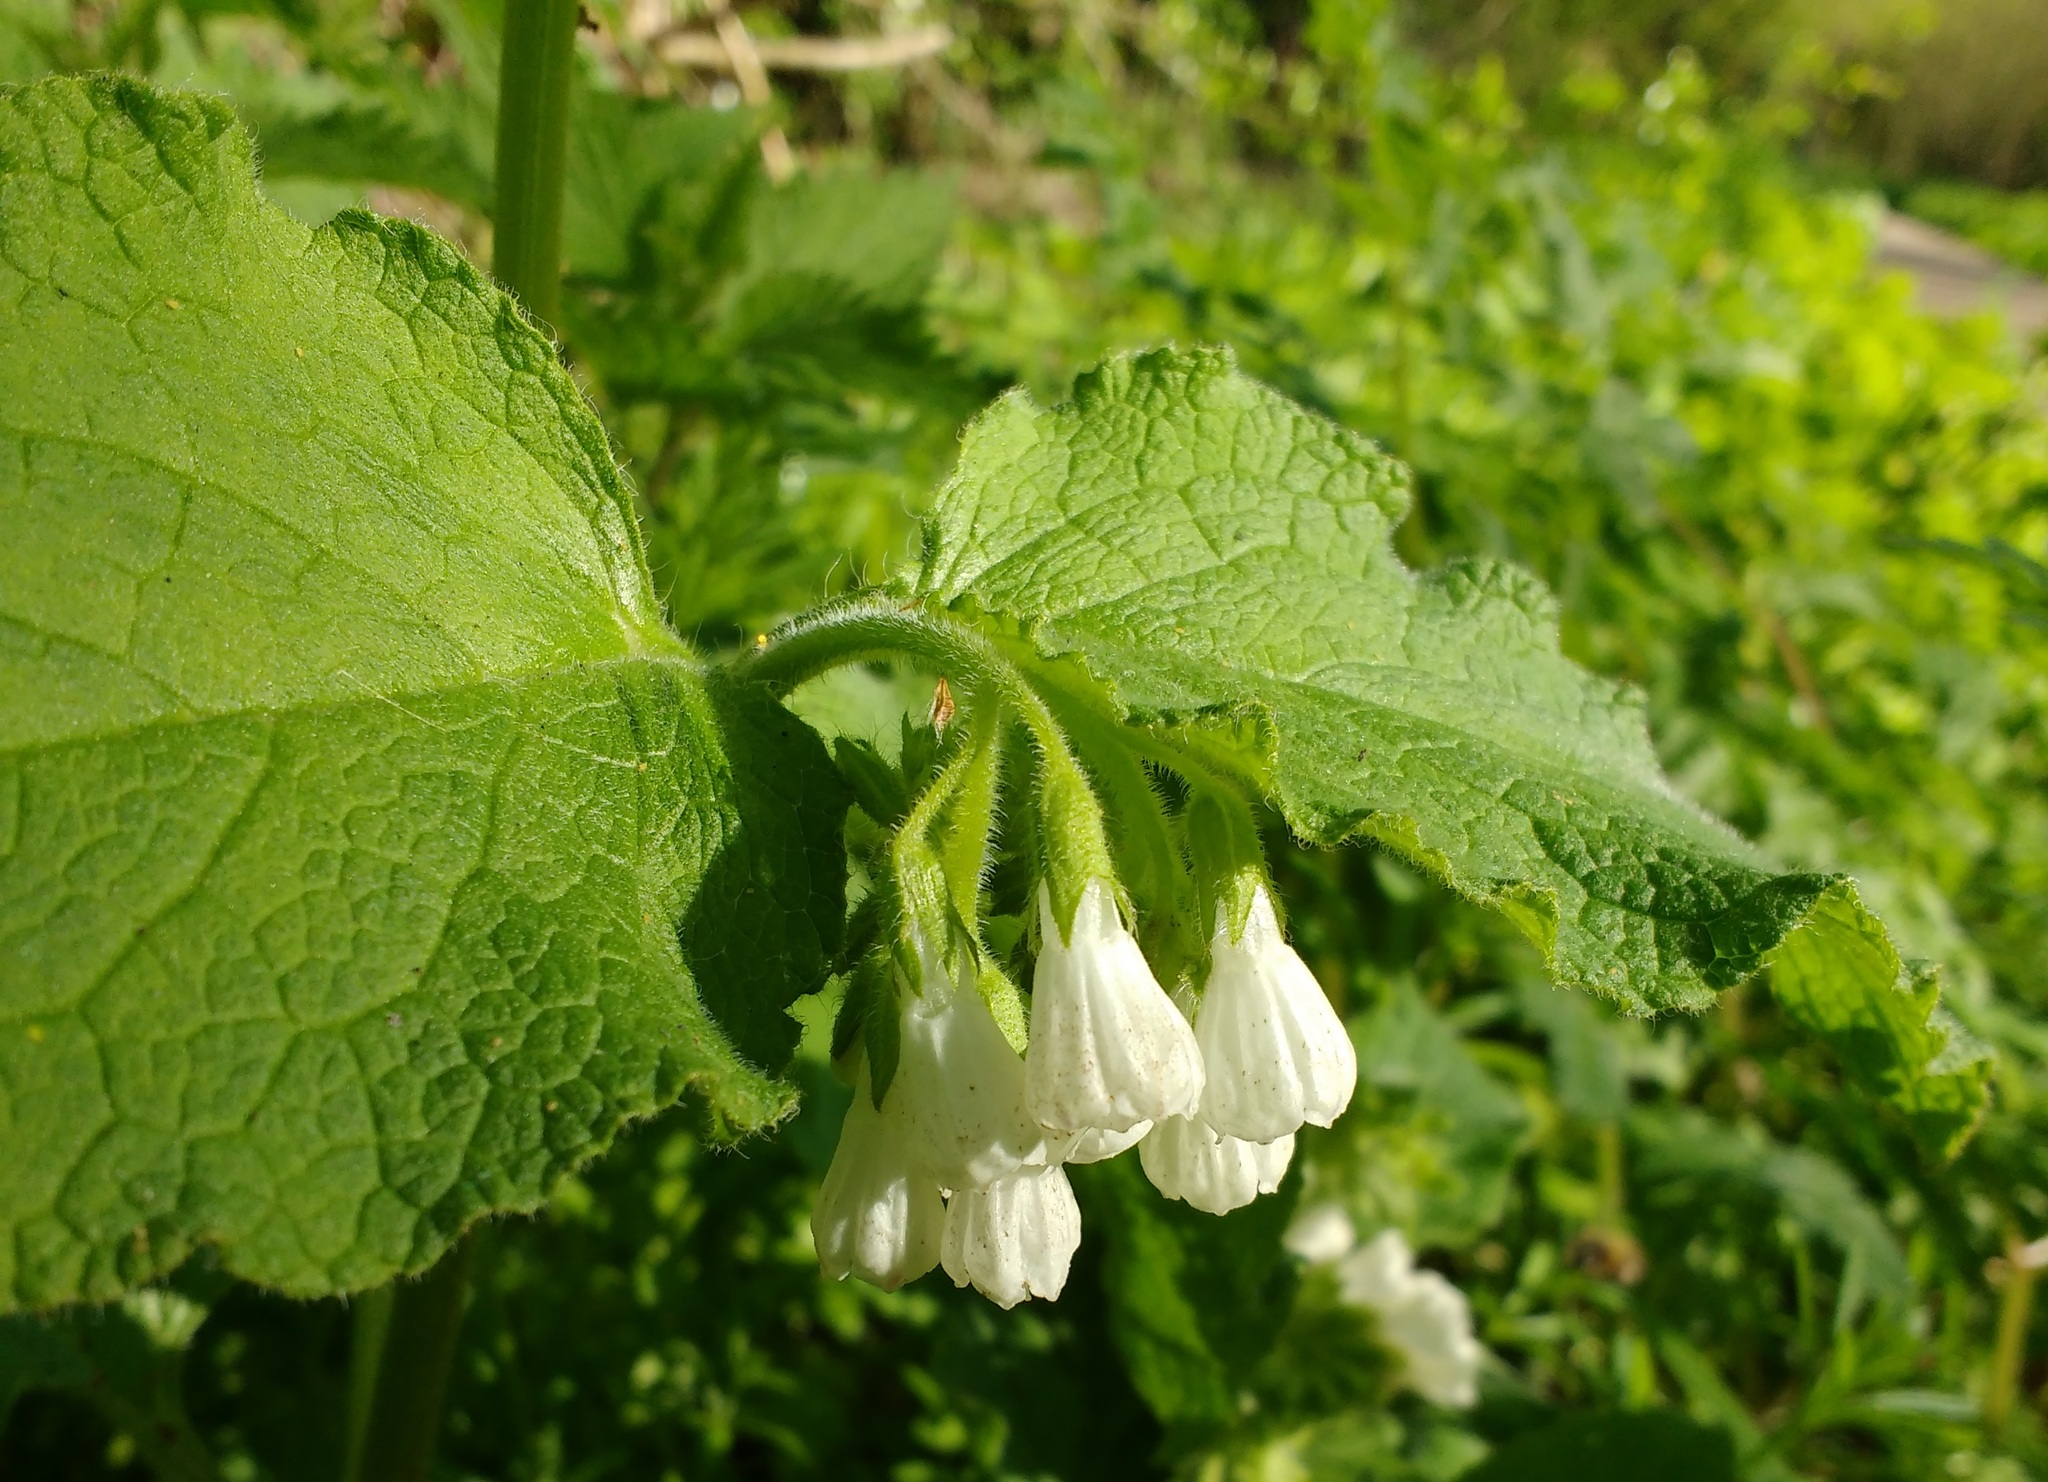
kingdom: Plantae
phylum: Tracheophyta
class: Magnoliopsida
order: Boraginales
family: Boraginaceae
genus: Symphytum
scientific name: Symphytum orientale
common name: White comfrey
